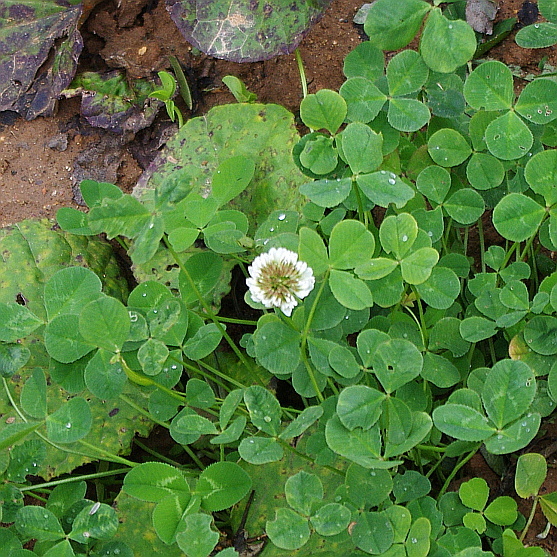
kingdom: Plantae
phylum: Tracheophyta
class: Magnoliopsida
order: Fabales
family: Fabaceae
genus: Trifolium
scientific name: Trifolium repens
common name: White clover
